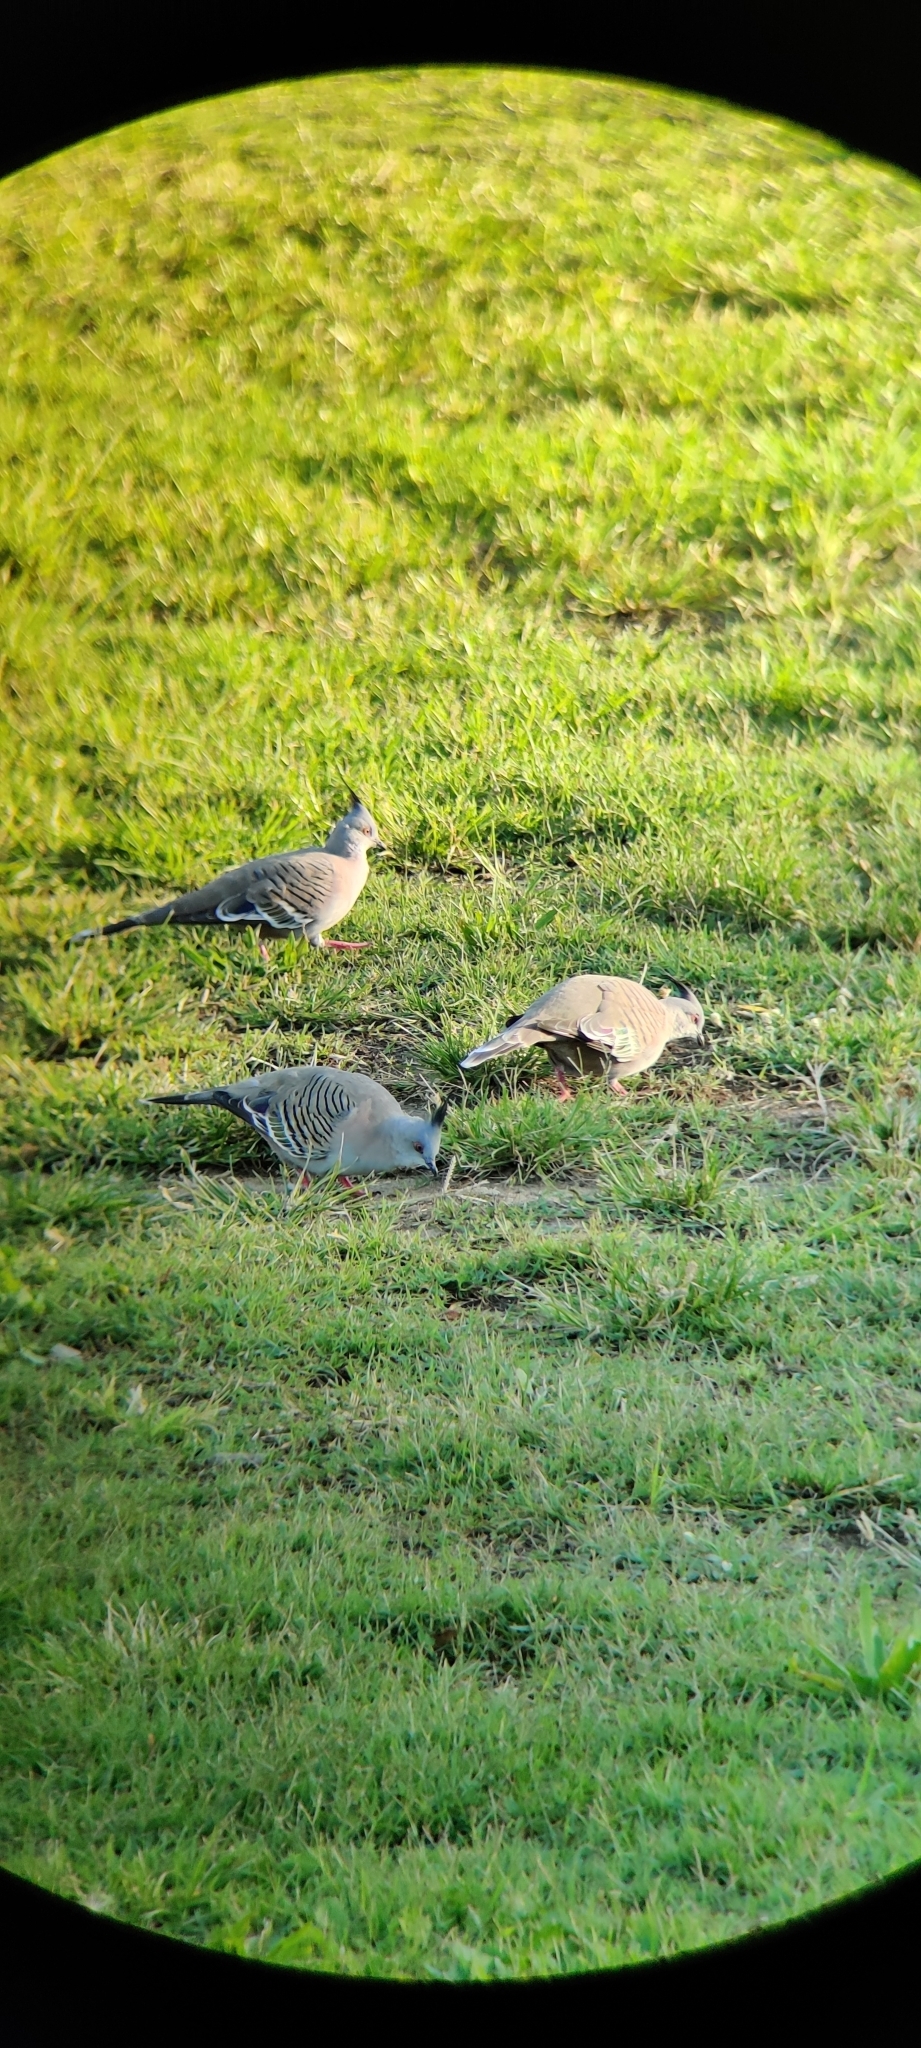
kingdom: Animalia
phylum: Chordata
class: Aves
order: Columbiformes
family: Columbidae
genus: Ocyphaps
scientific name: Ocyphaps lophotes
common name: Crested pigeon
